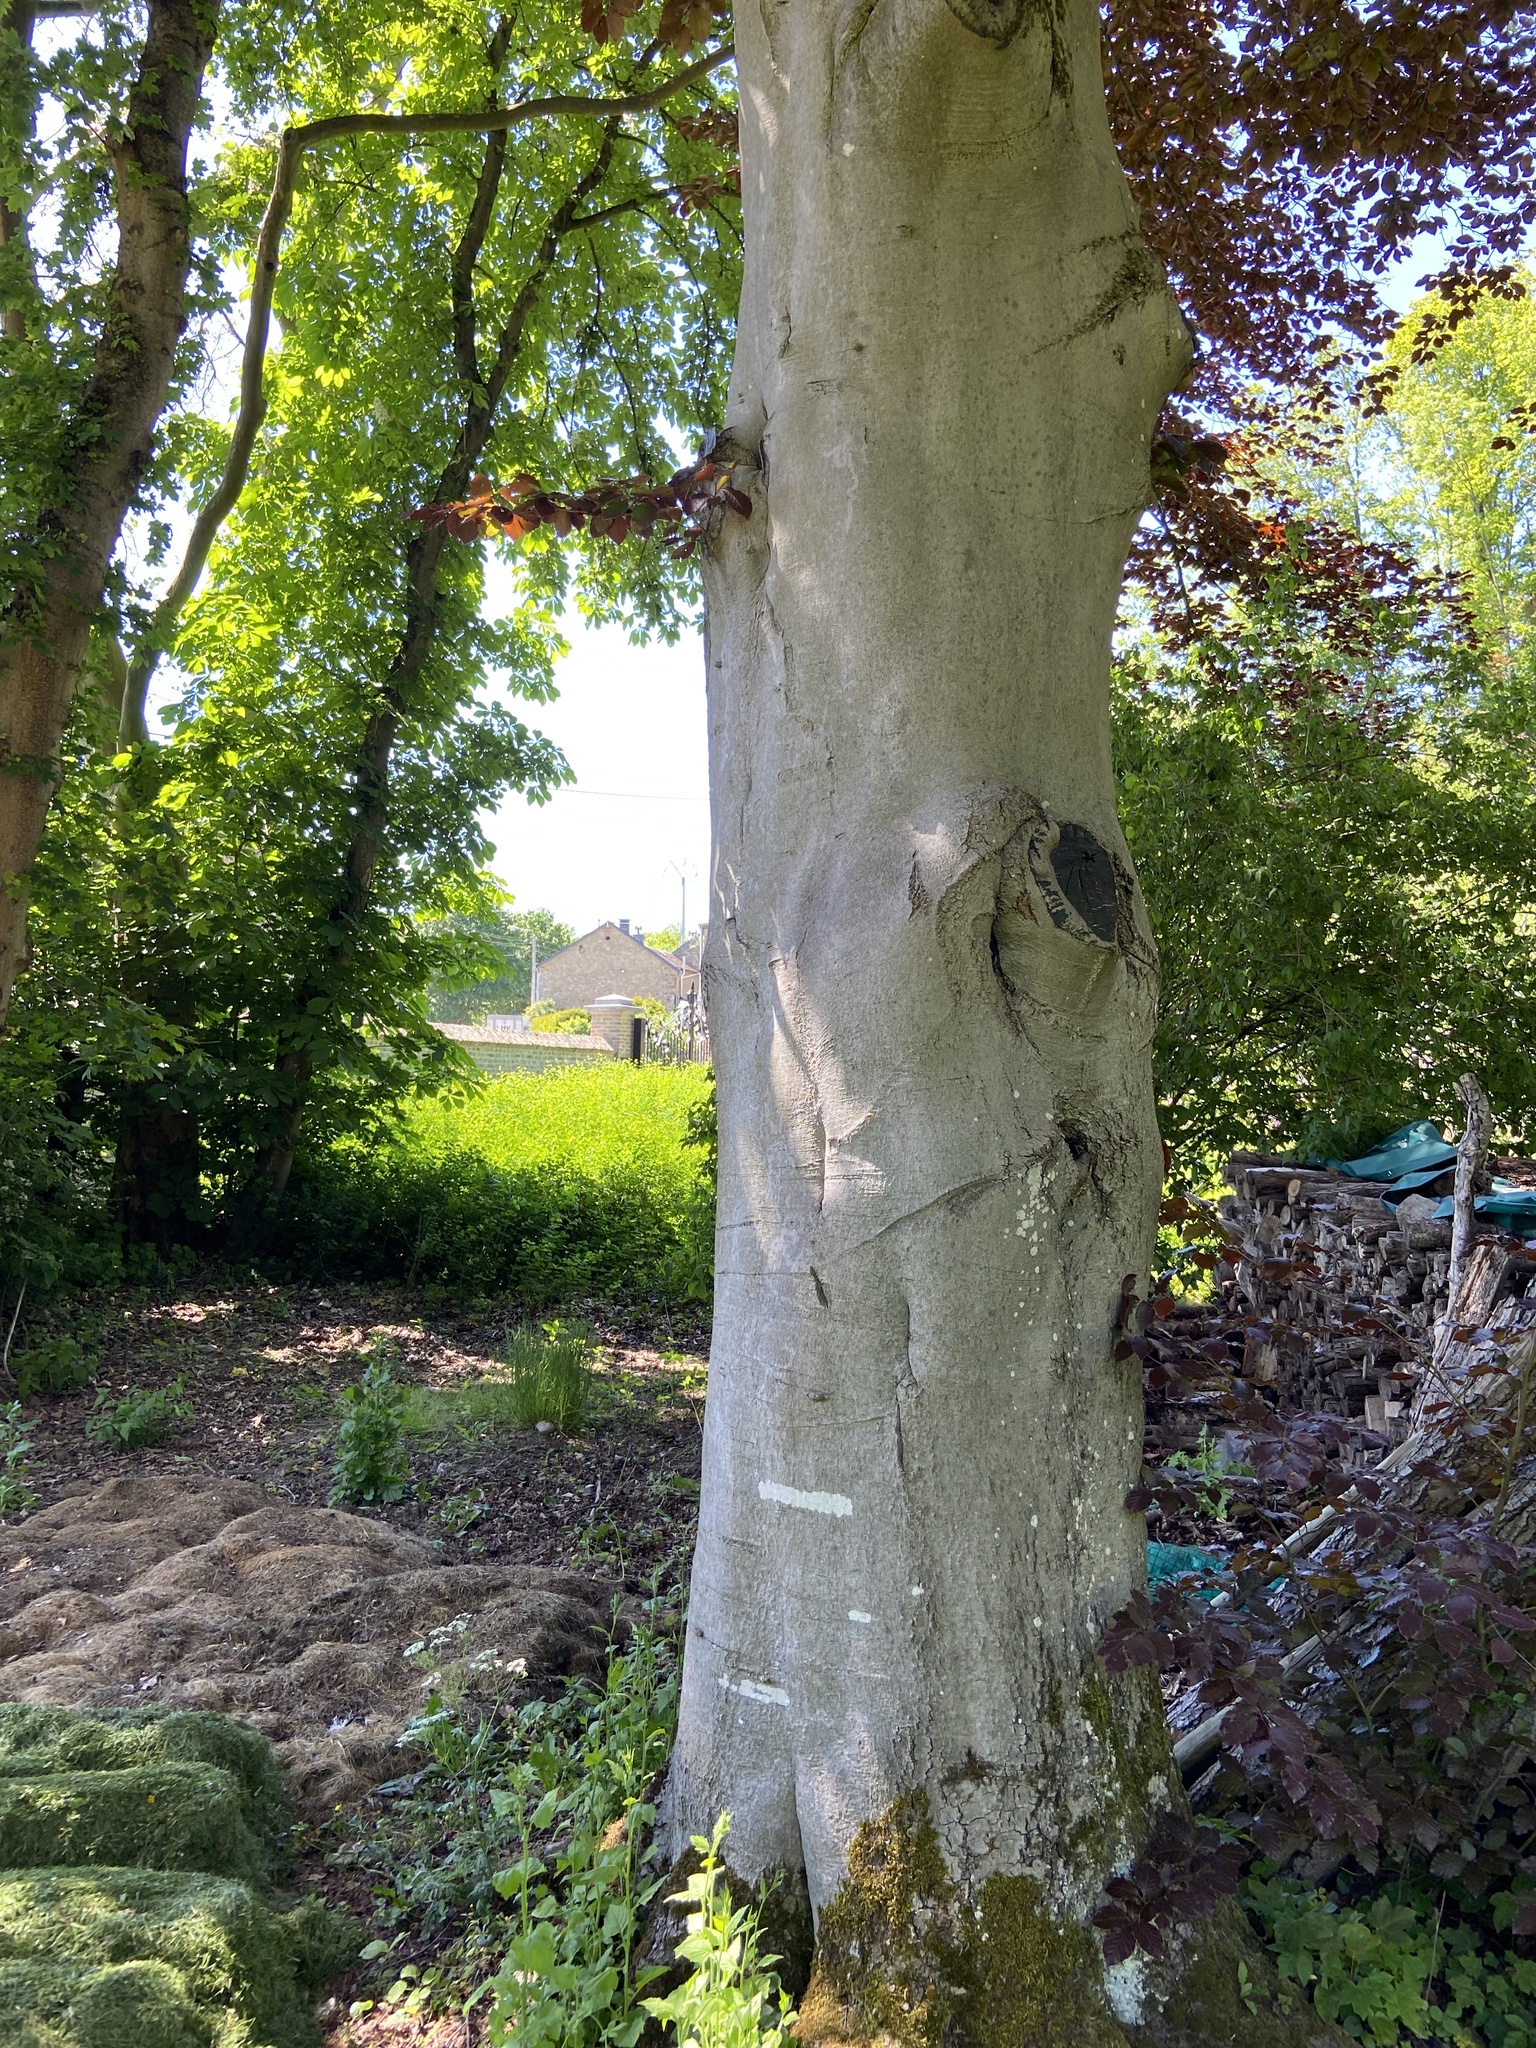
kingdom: Plantae
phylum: Tracheophyta
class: Magnoliopsida
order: Fagales
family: Fagaceae
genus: Fagus
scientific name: Fagus sylvatica
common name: Beech
